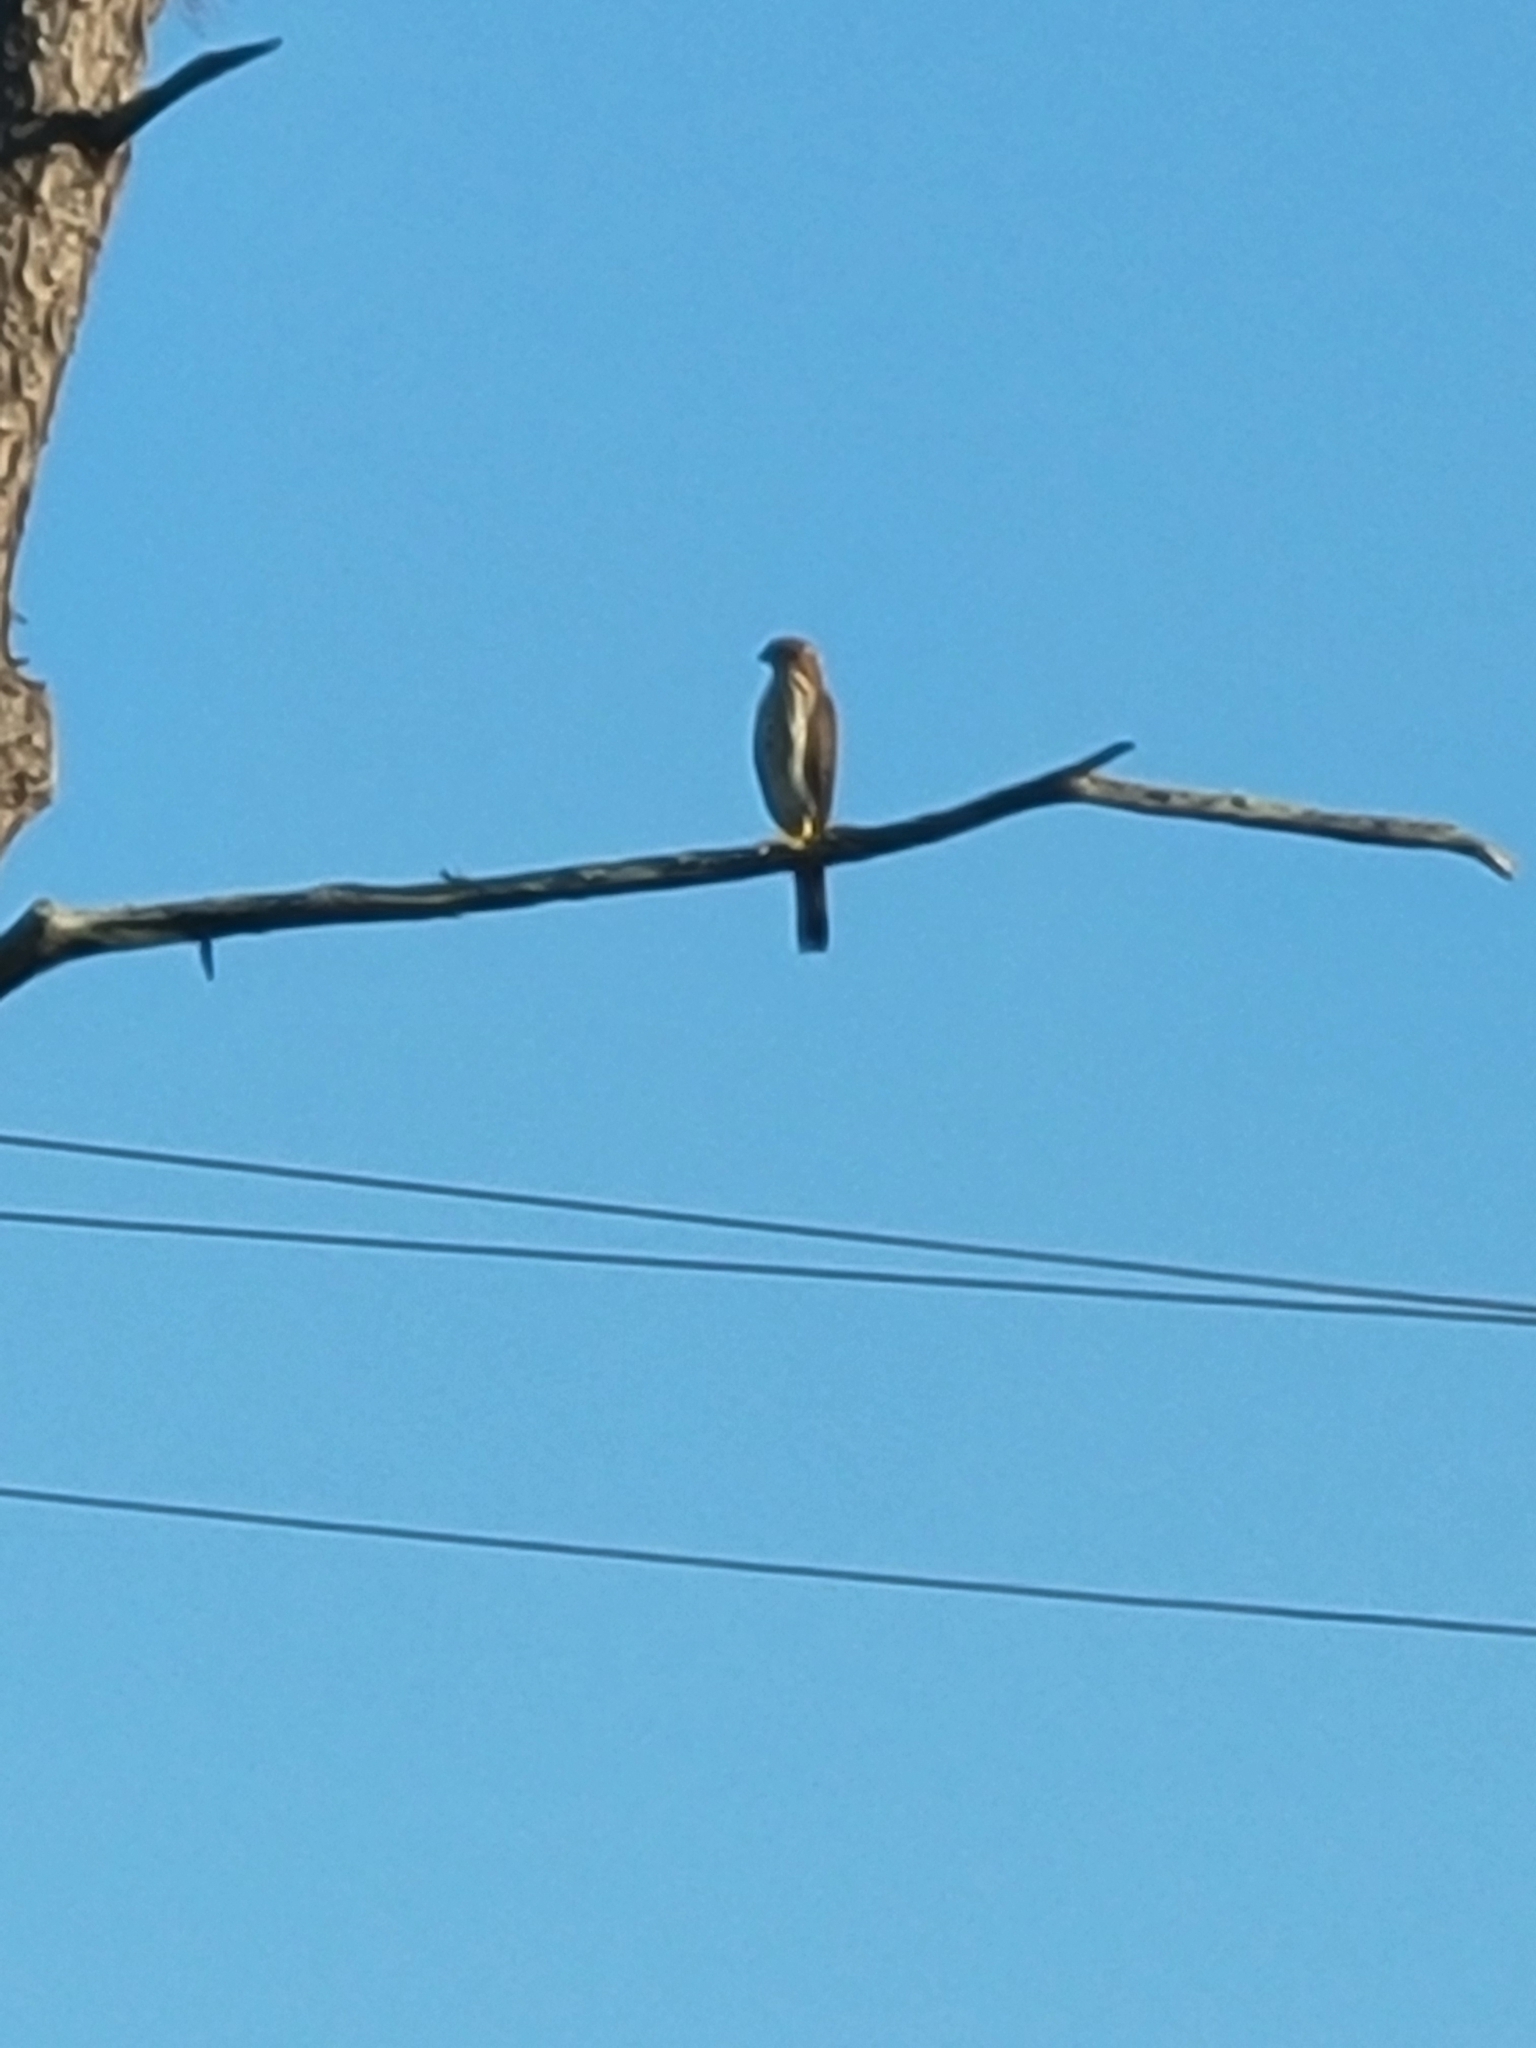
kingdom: Animalia
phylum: Chordata
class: Aves
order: Accipitriformes
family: Accipitridae
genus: Accipiter
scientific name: Accipiter cooperii
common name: Cooper's hawk
